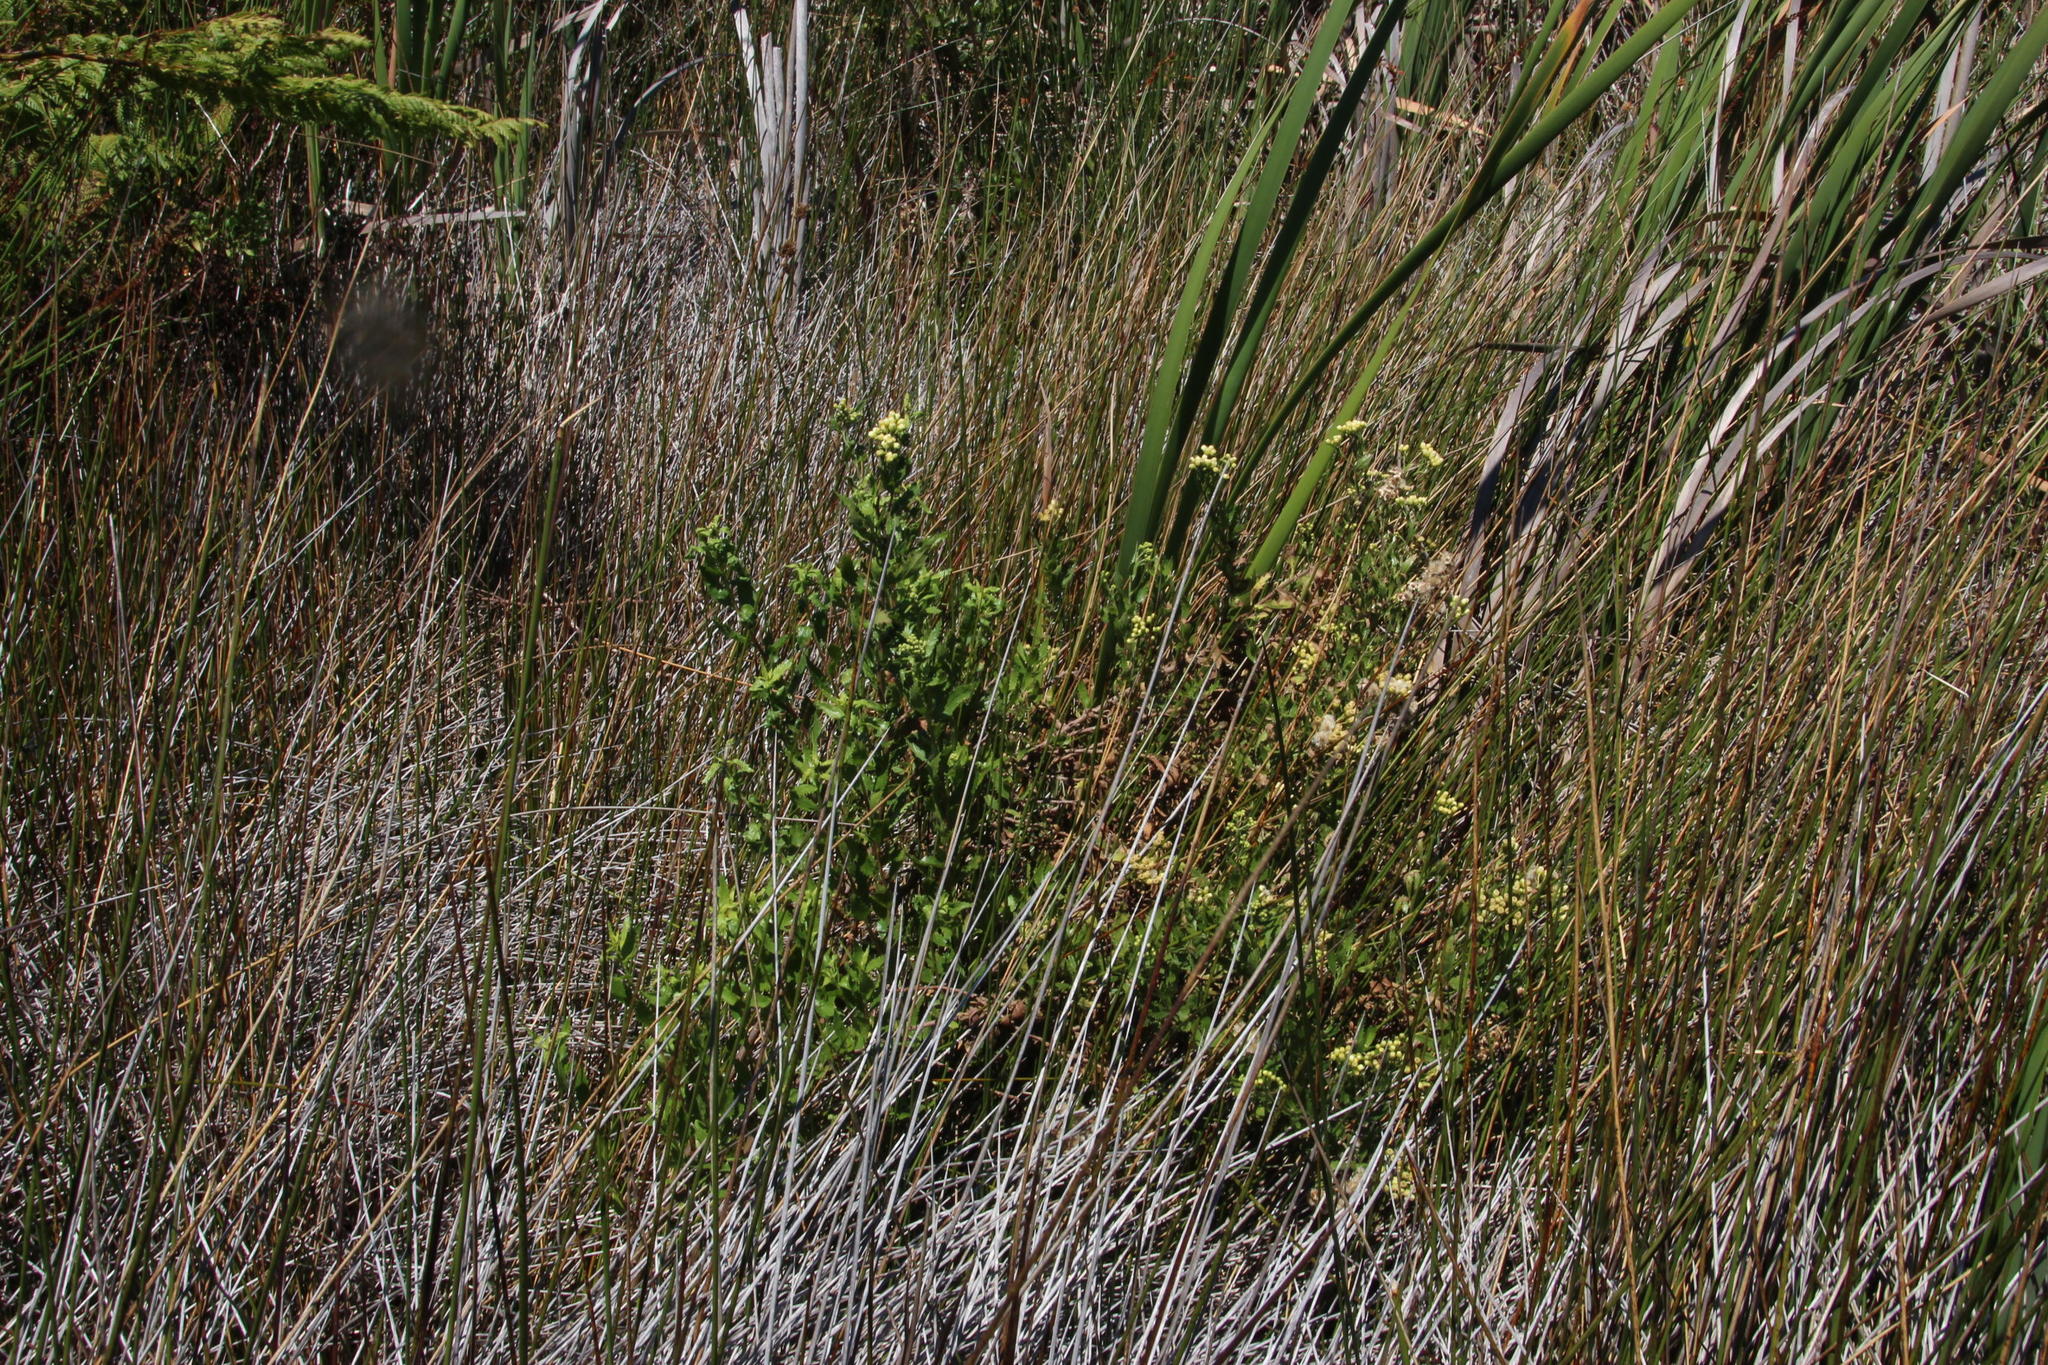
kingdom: Plantae
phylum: Tracheophyta
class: Magnoliopsida
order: Asterales
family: Asteraceae
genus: Nidorella
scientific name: Nidorella ivifolia
